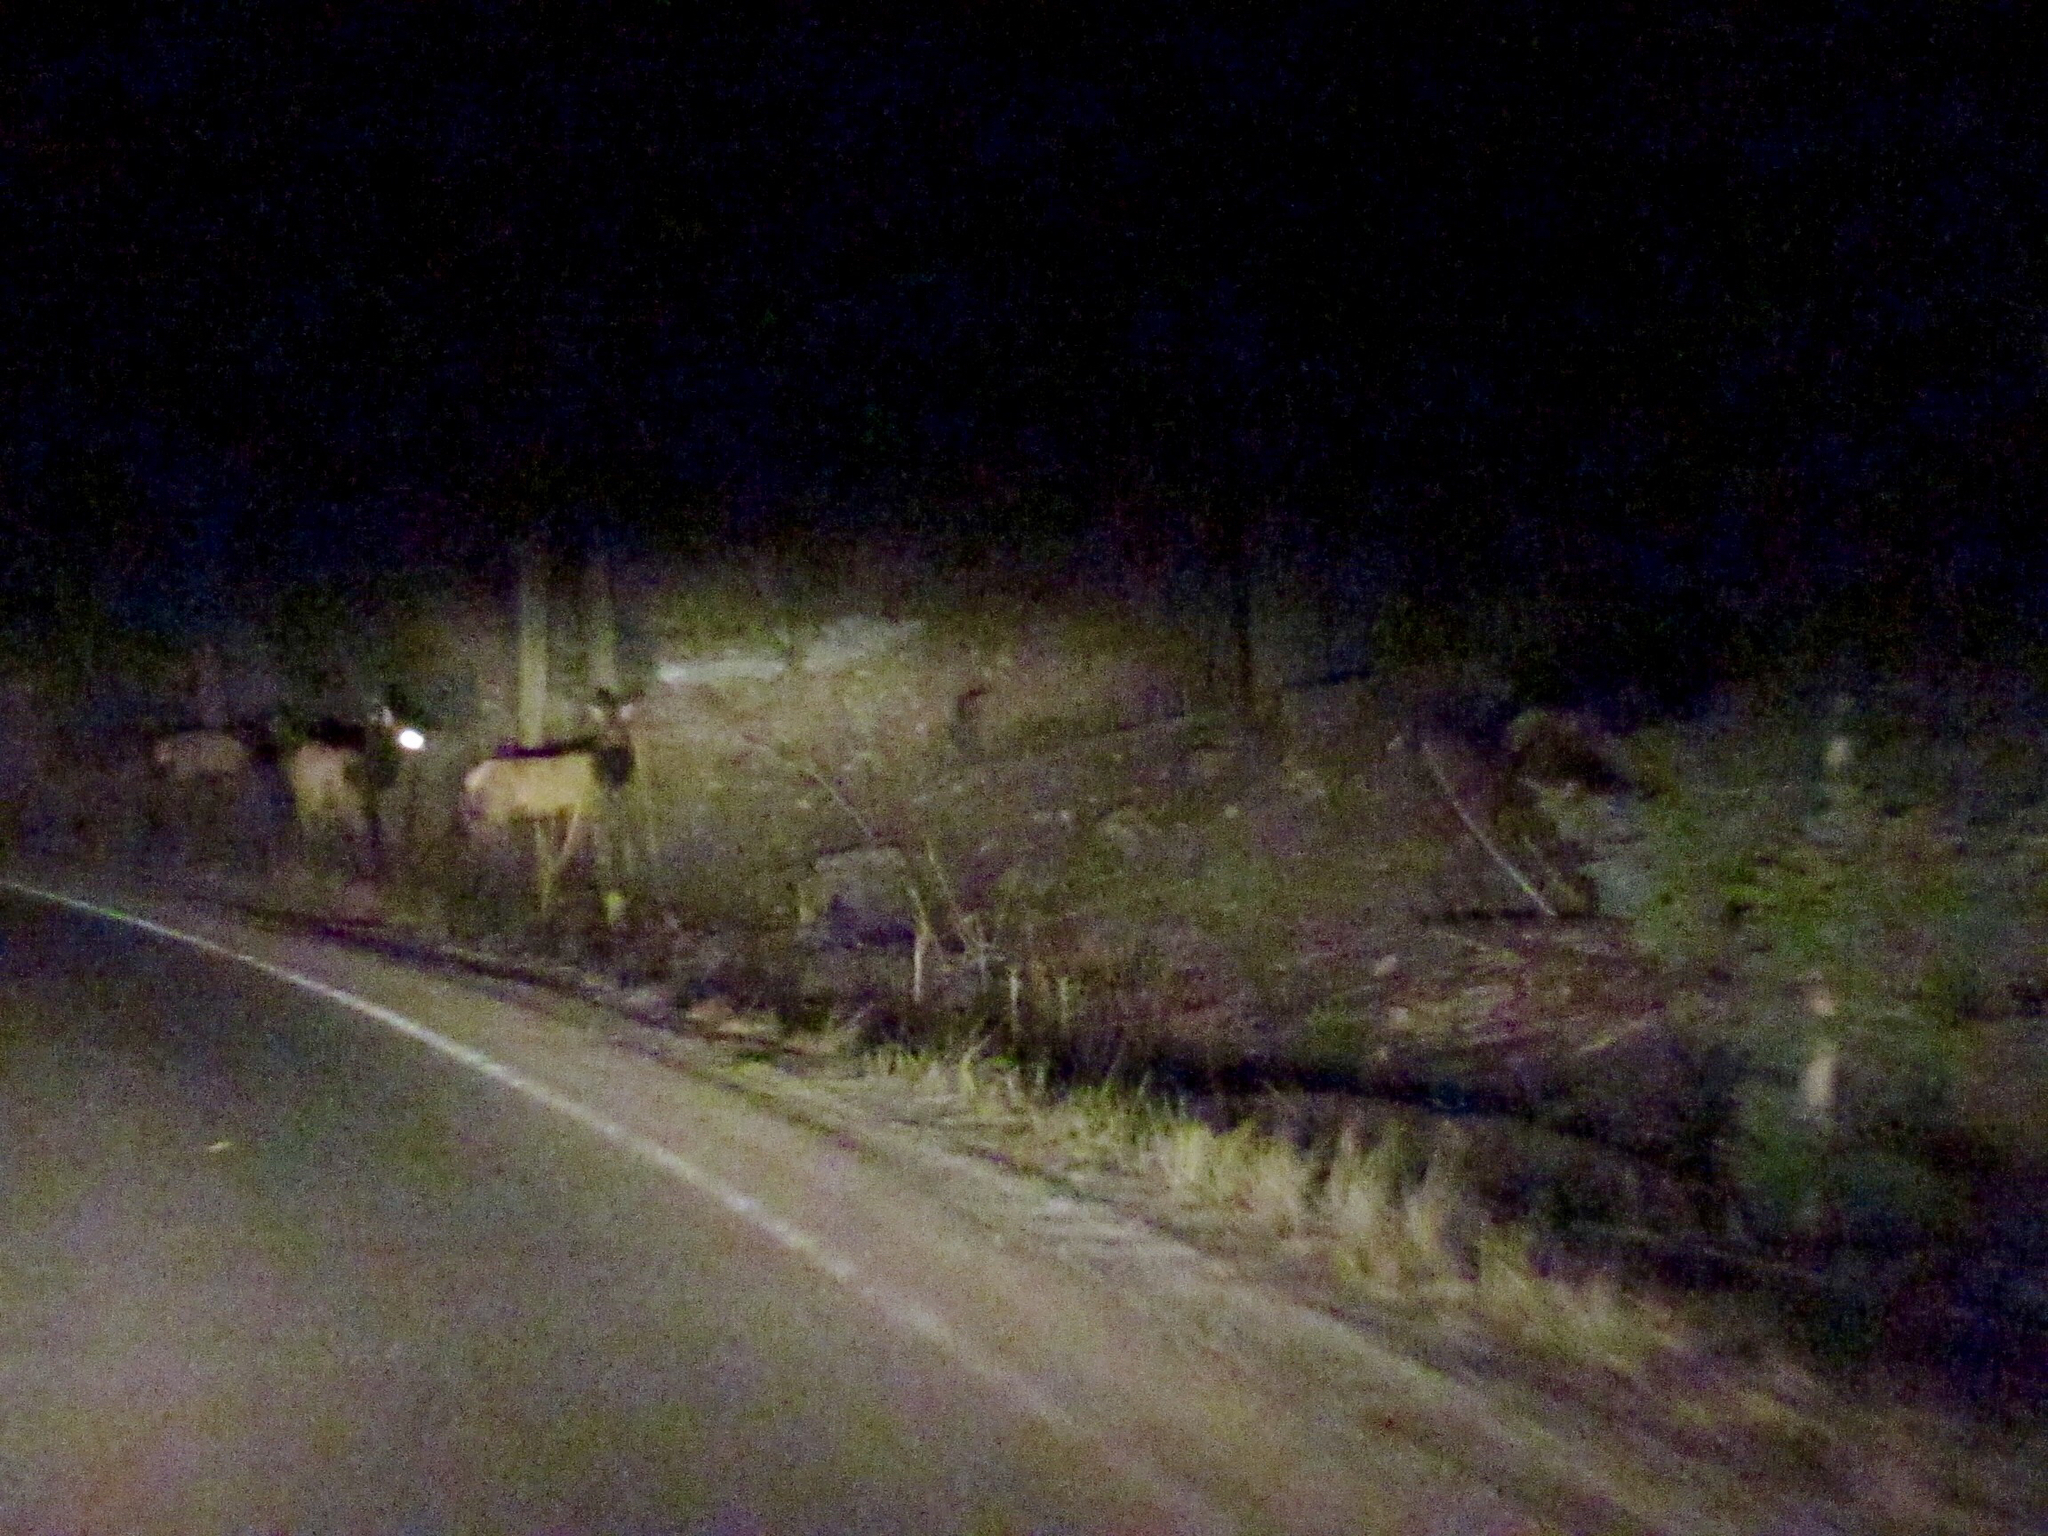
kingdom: Animalia
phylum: Chordata
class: Mammalia
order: Artiodactyla
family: Cervidae
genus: Cervus
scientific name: Cervus elaphus
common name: Red deer
